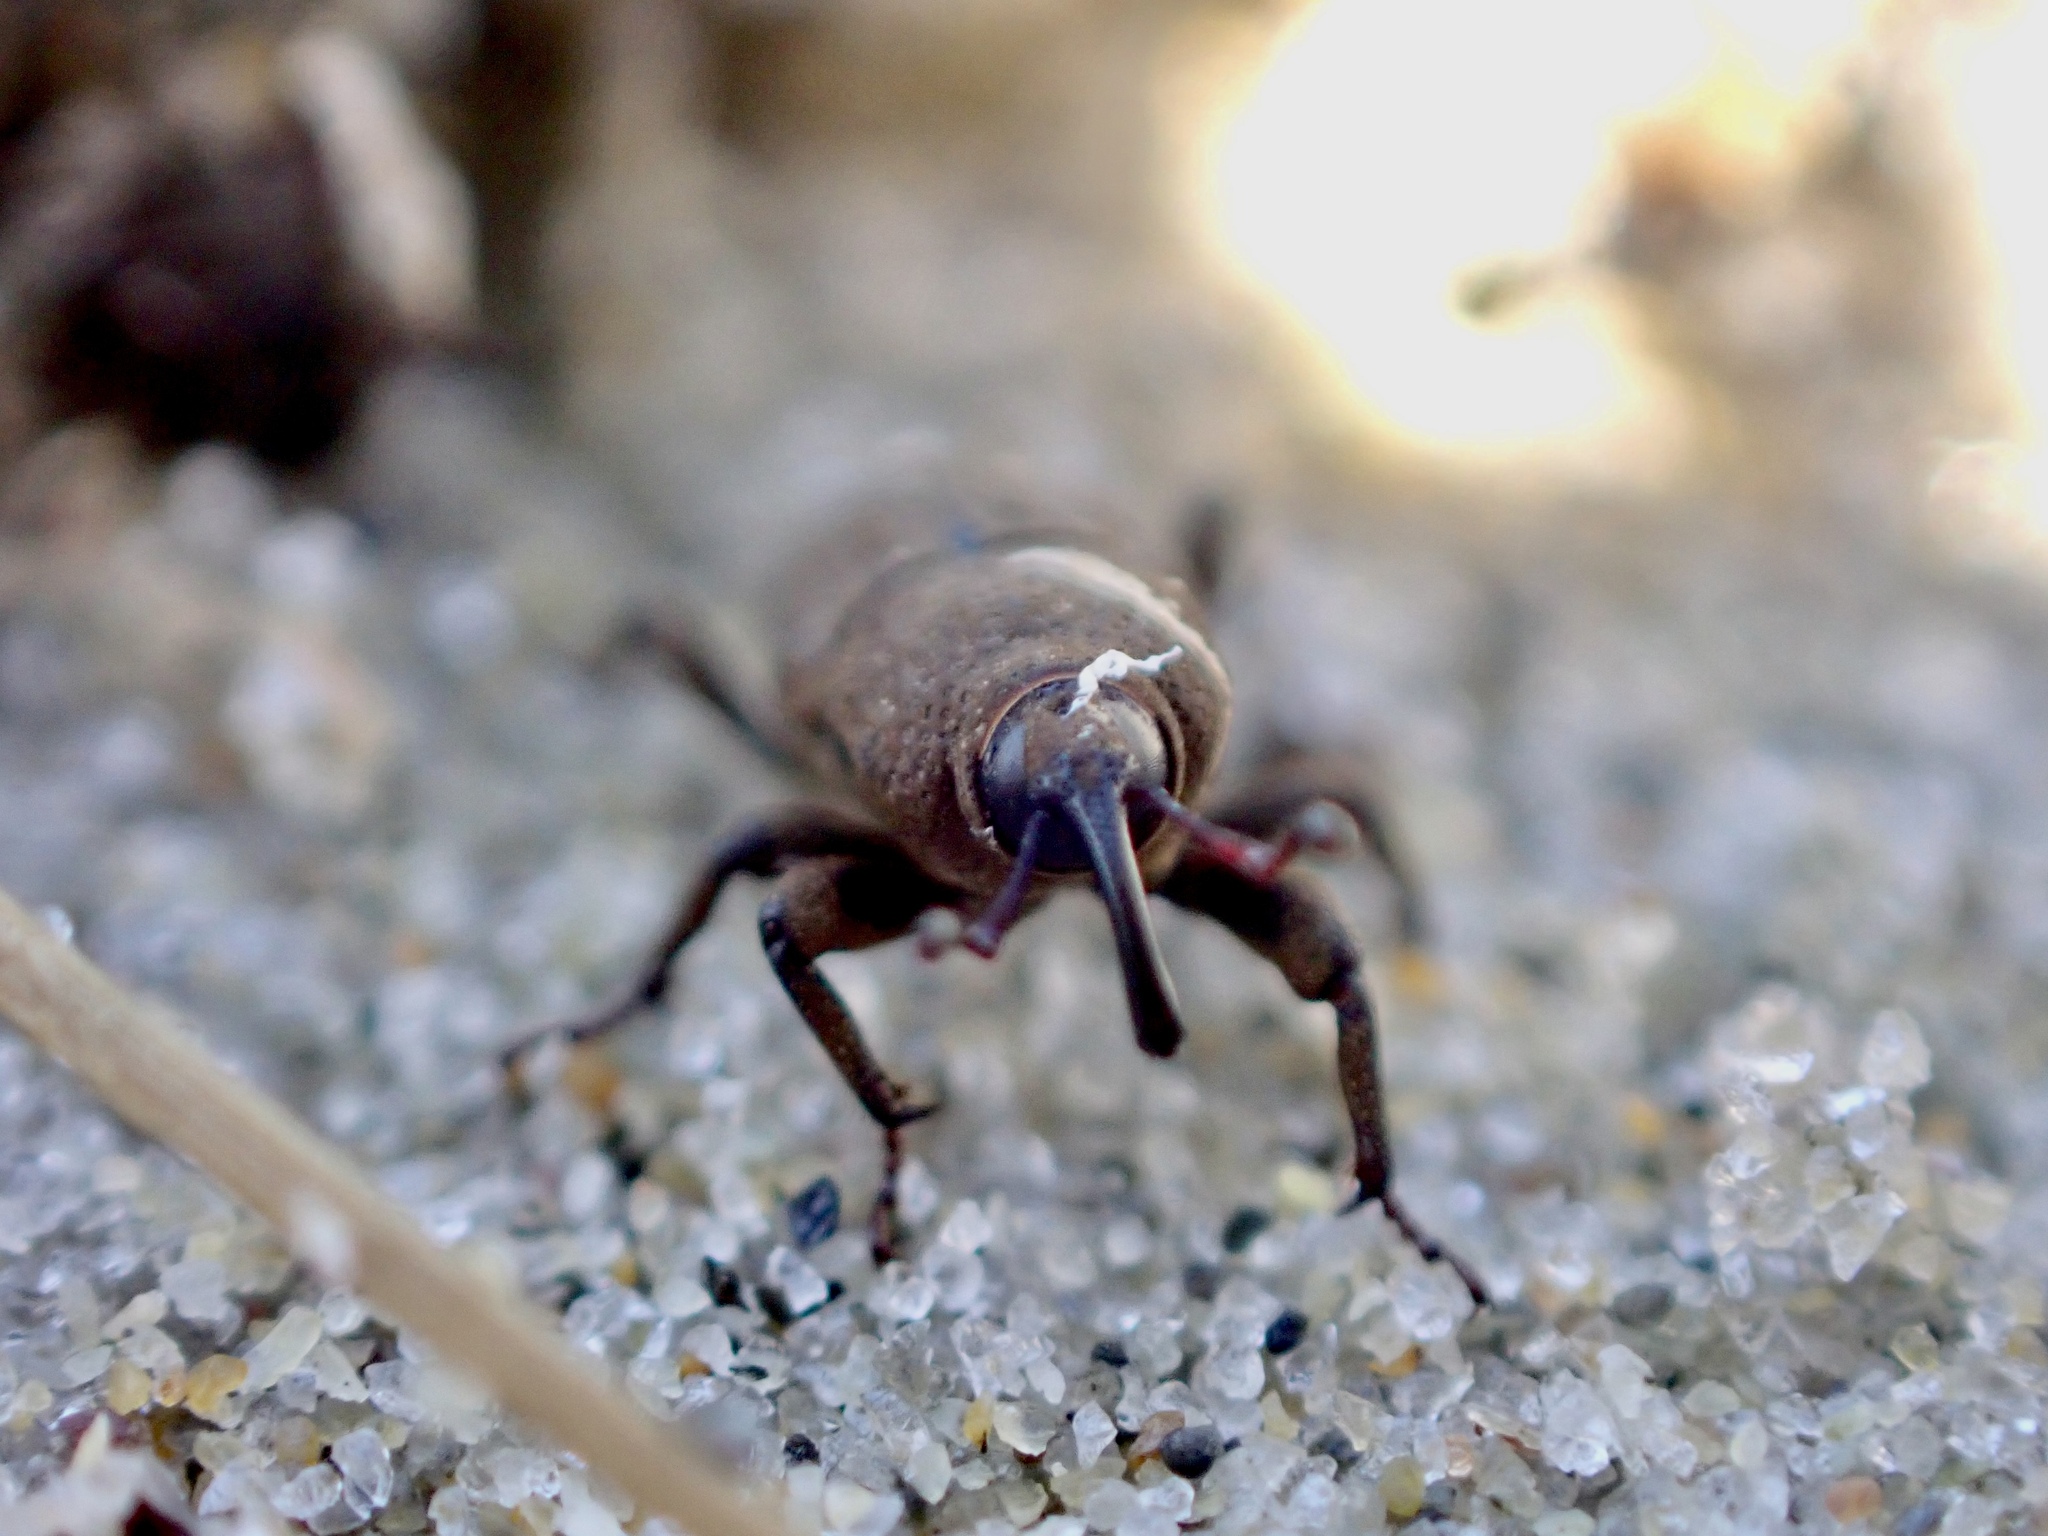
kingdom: Animalia
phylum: Arthropoda
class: Insecta
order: Coleoptera
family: Dryophthoridae
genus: Sphenophorus
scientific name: Sphenophorus minimus
